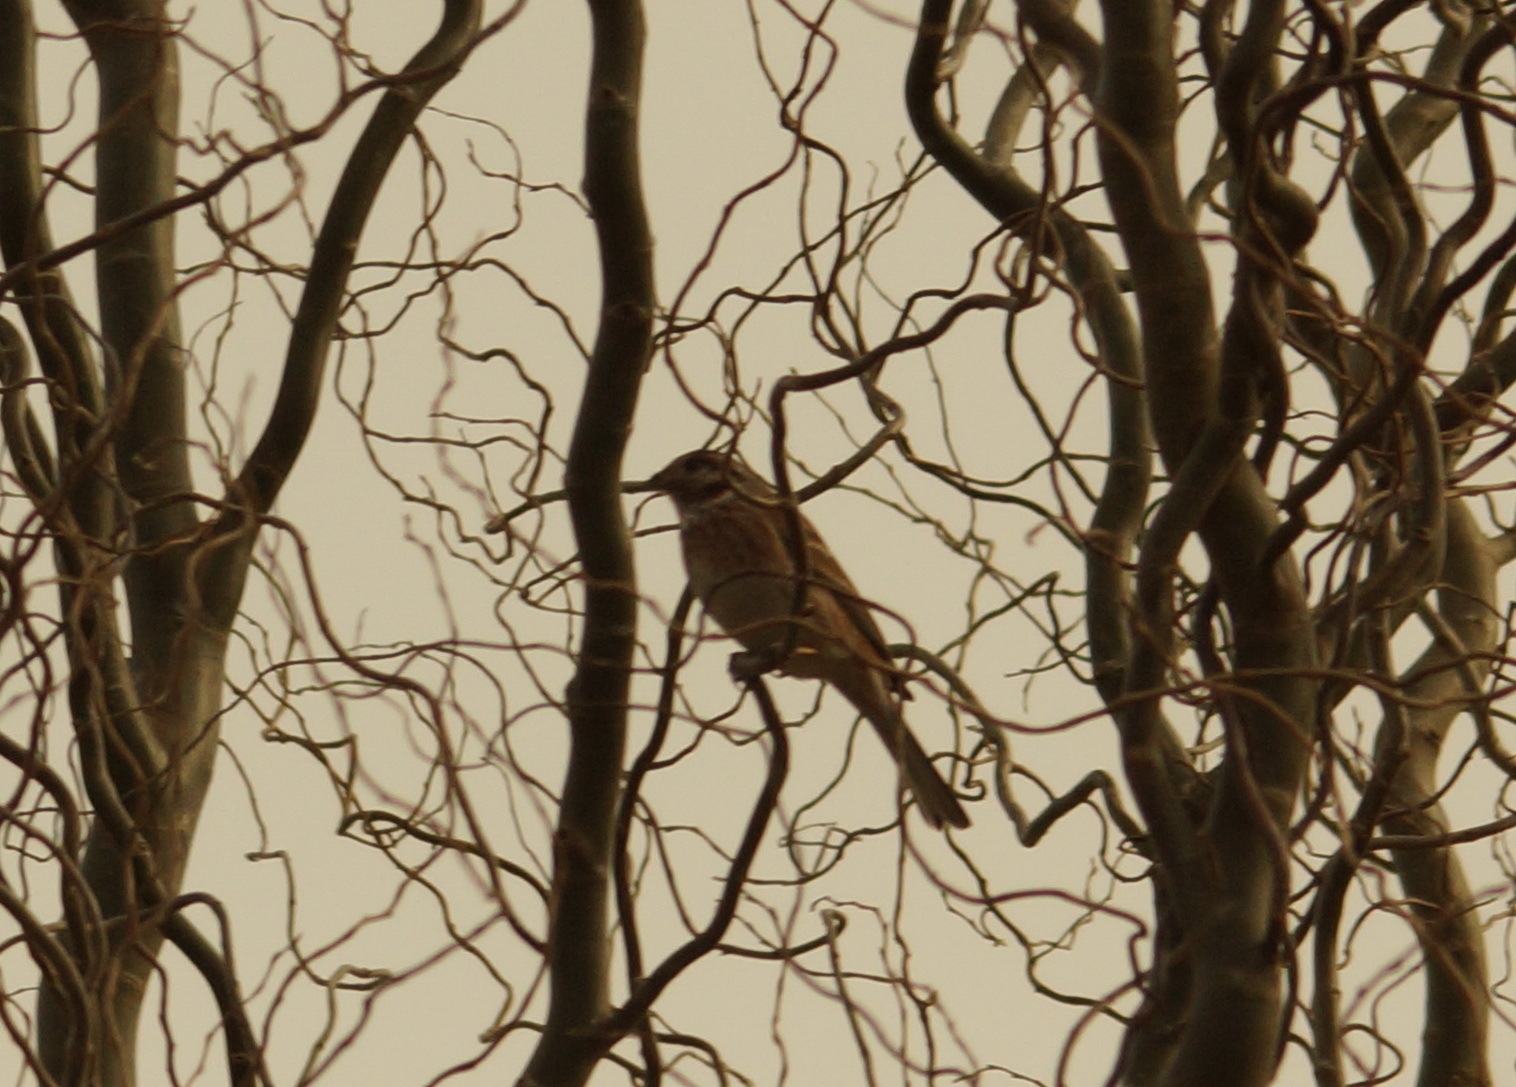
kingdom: Animalia
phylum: Chordata
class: Aves
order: Passeriformes
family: Emberizidae
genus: Emberiza
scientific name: Emberiza leucocephalos
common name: Pine bunting
